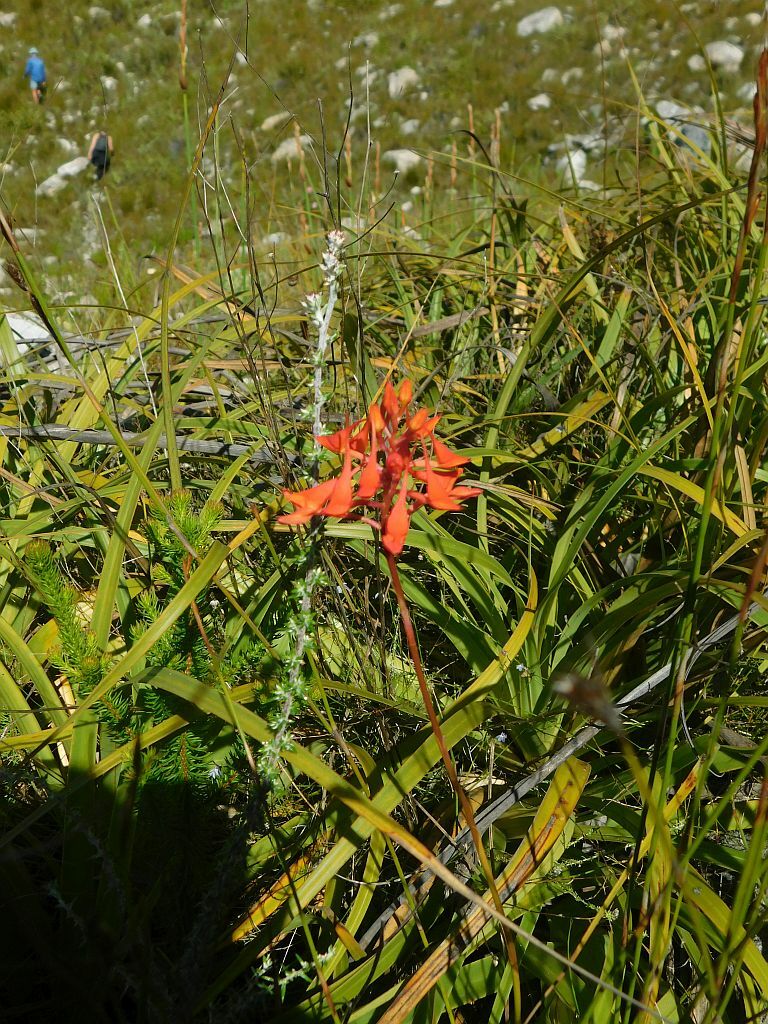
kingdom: Plantae
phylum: Tracheophyta
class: Liliopsida
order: Asparagales
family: Orchidaceae
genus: Disa
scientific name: Disa ferruginea
